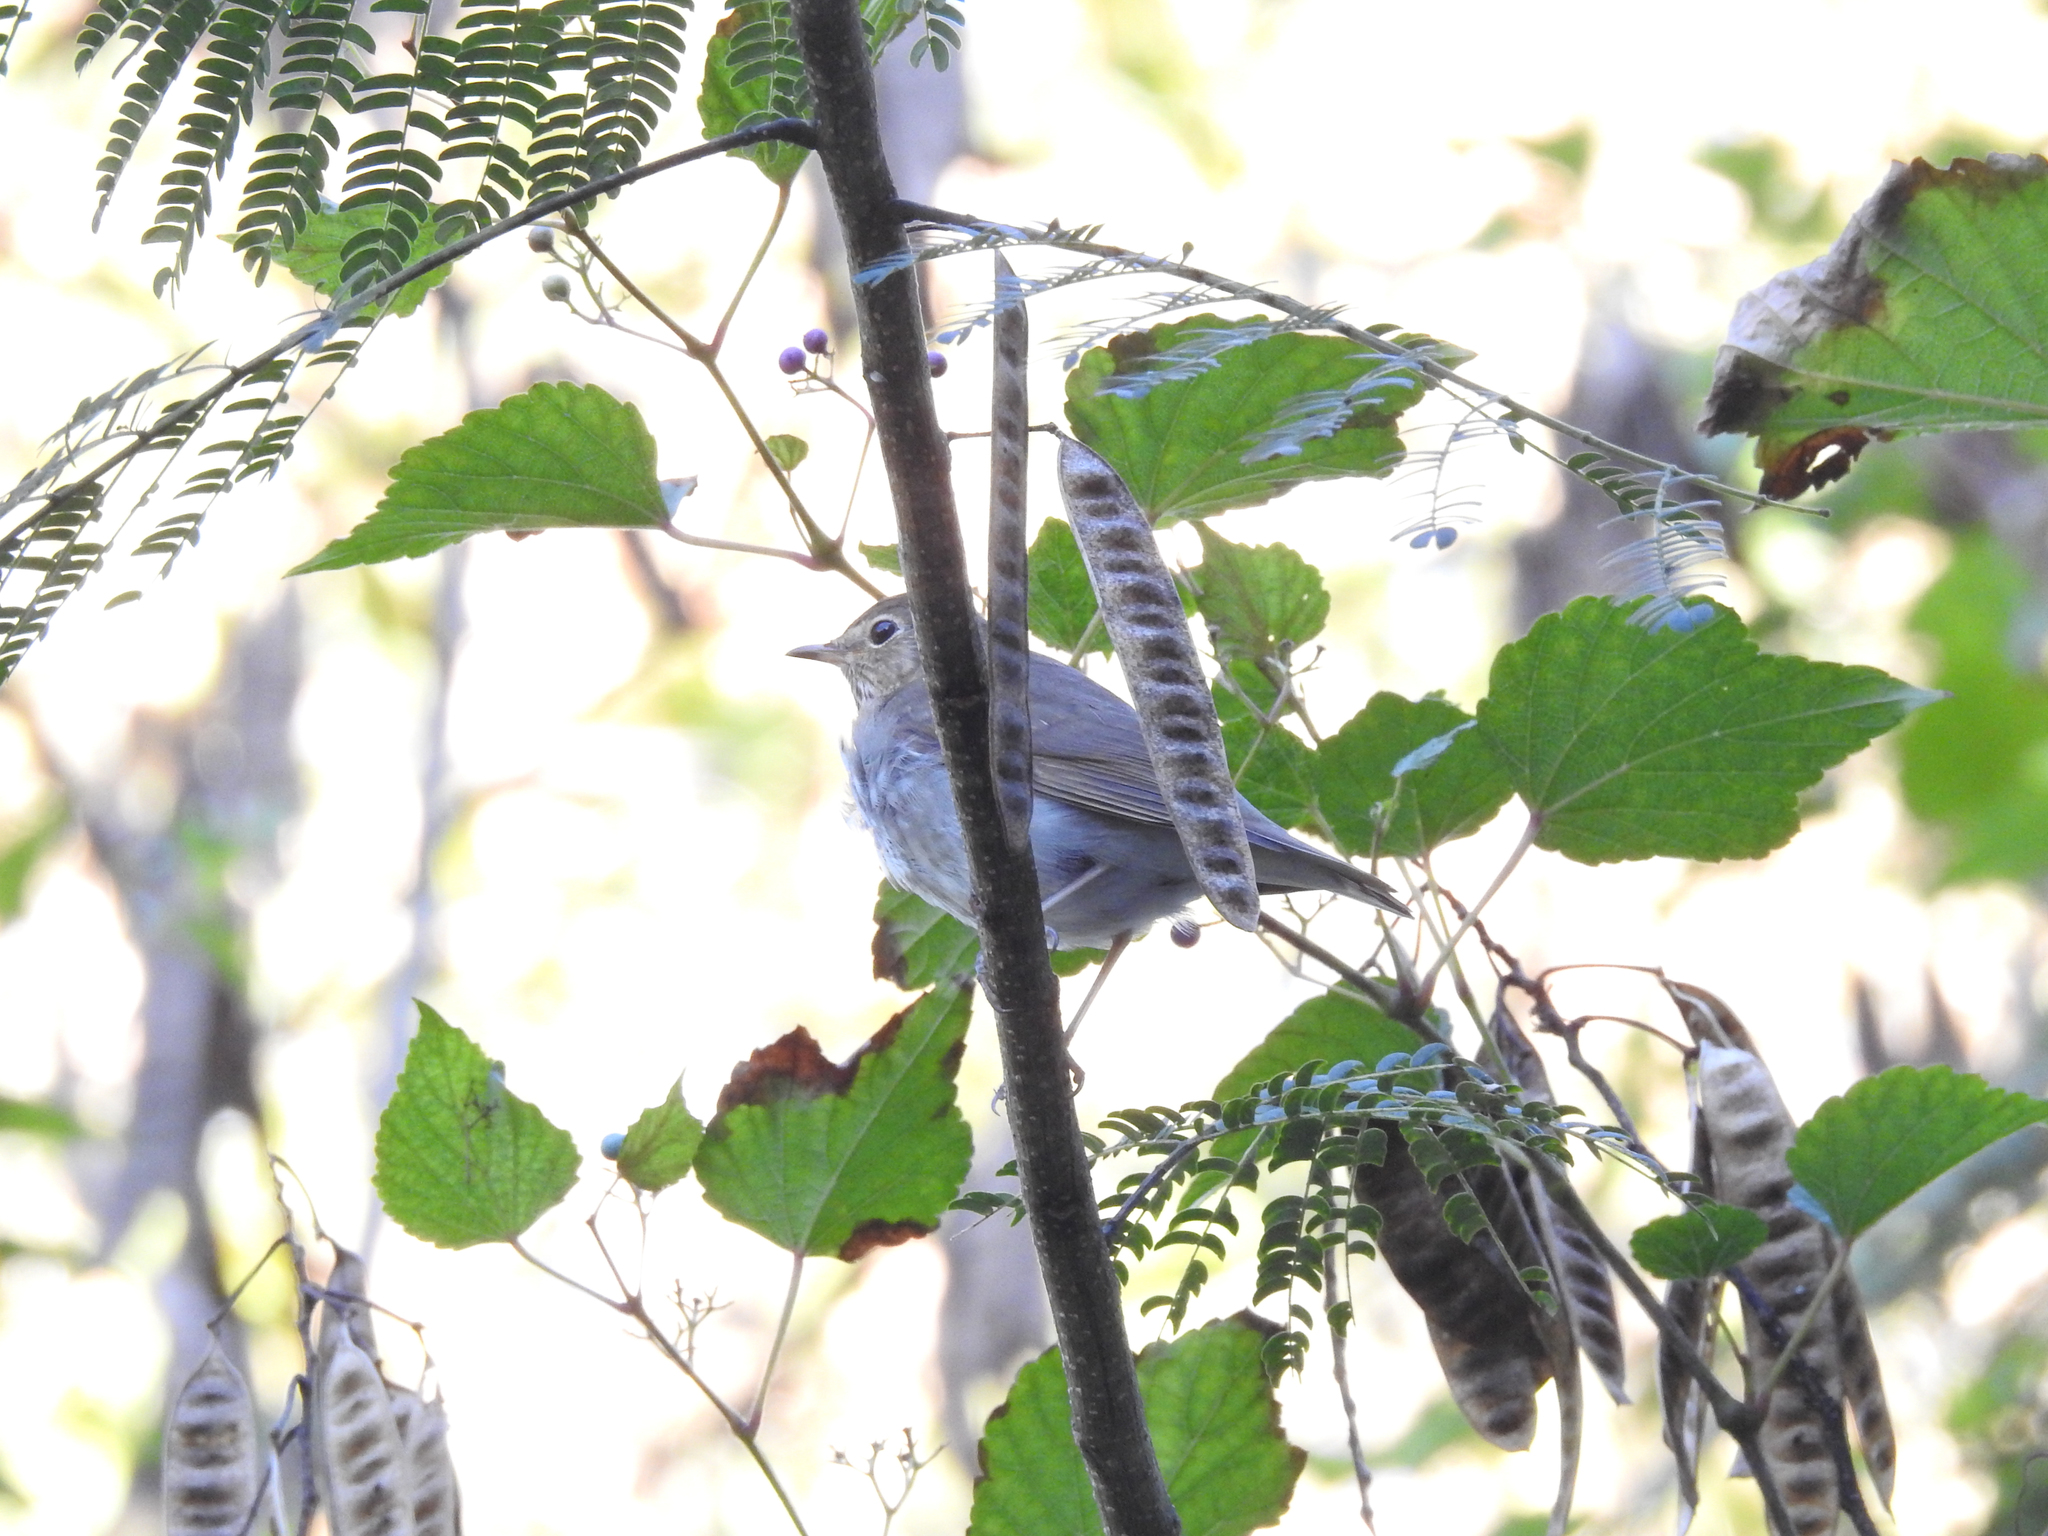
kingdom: Animalia
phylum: Chordata
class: Aves
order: Passeriformes
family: Turdidae
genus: Catharus
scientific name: Catharus ustulatus
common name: Swainson's thrush
